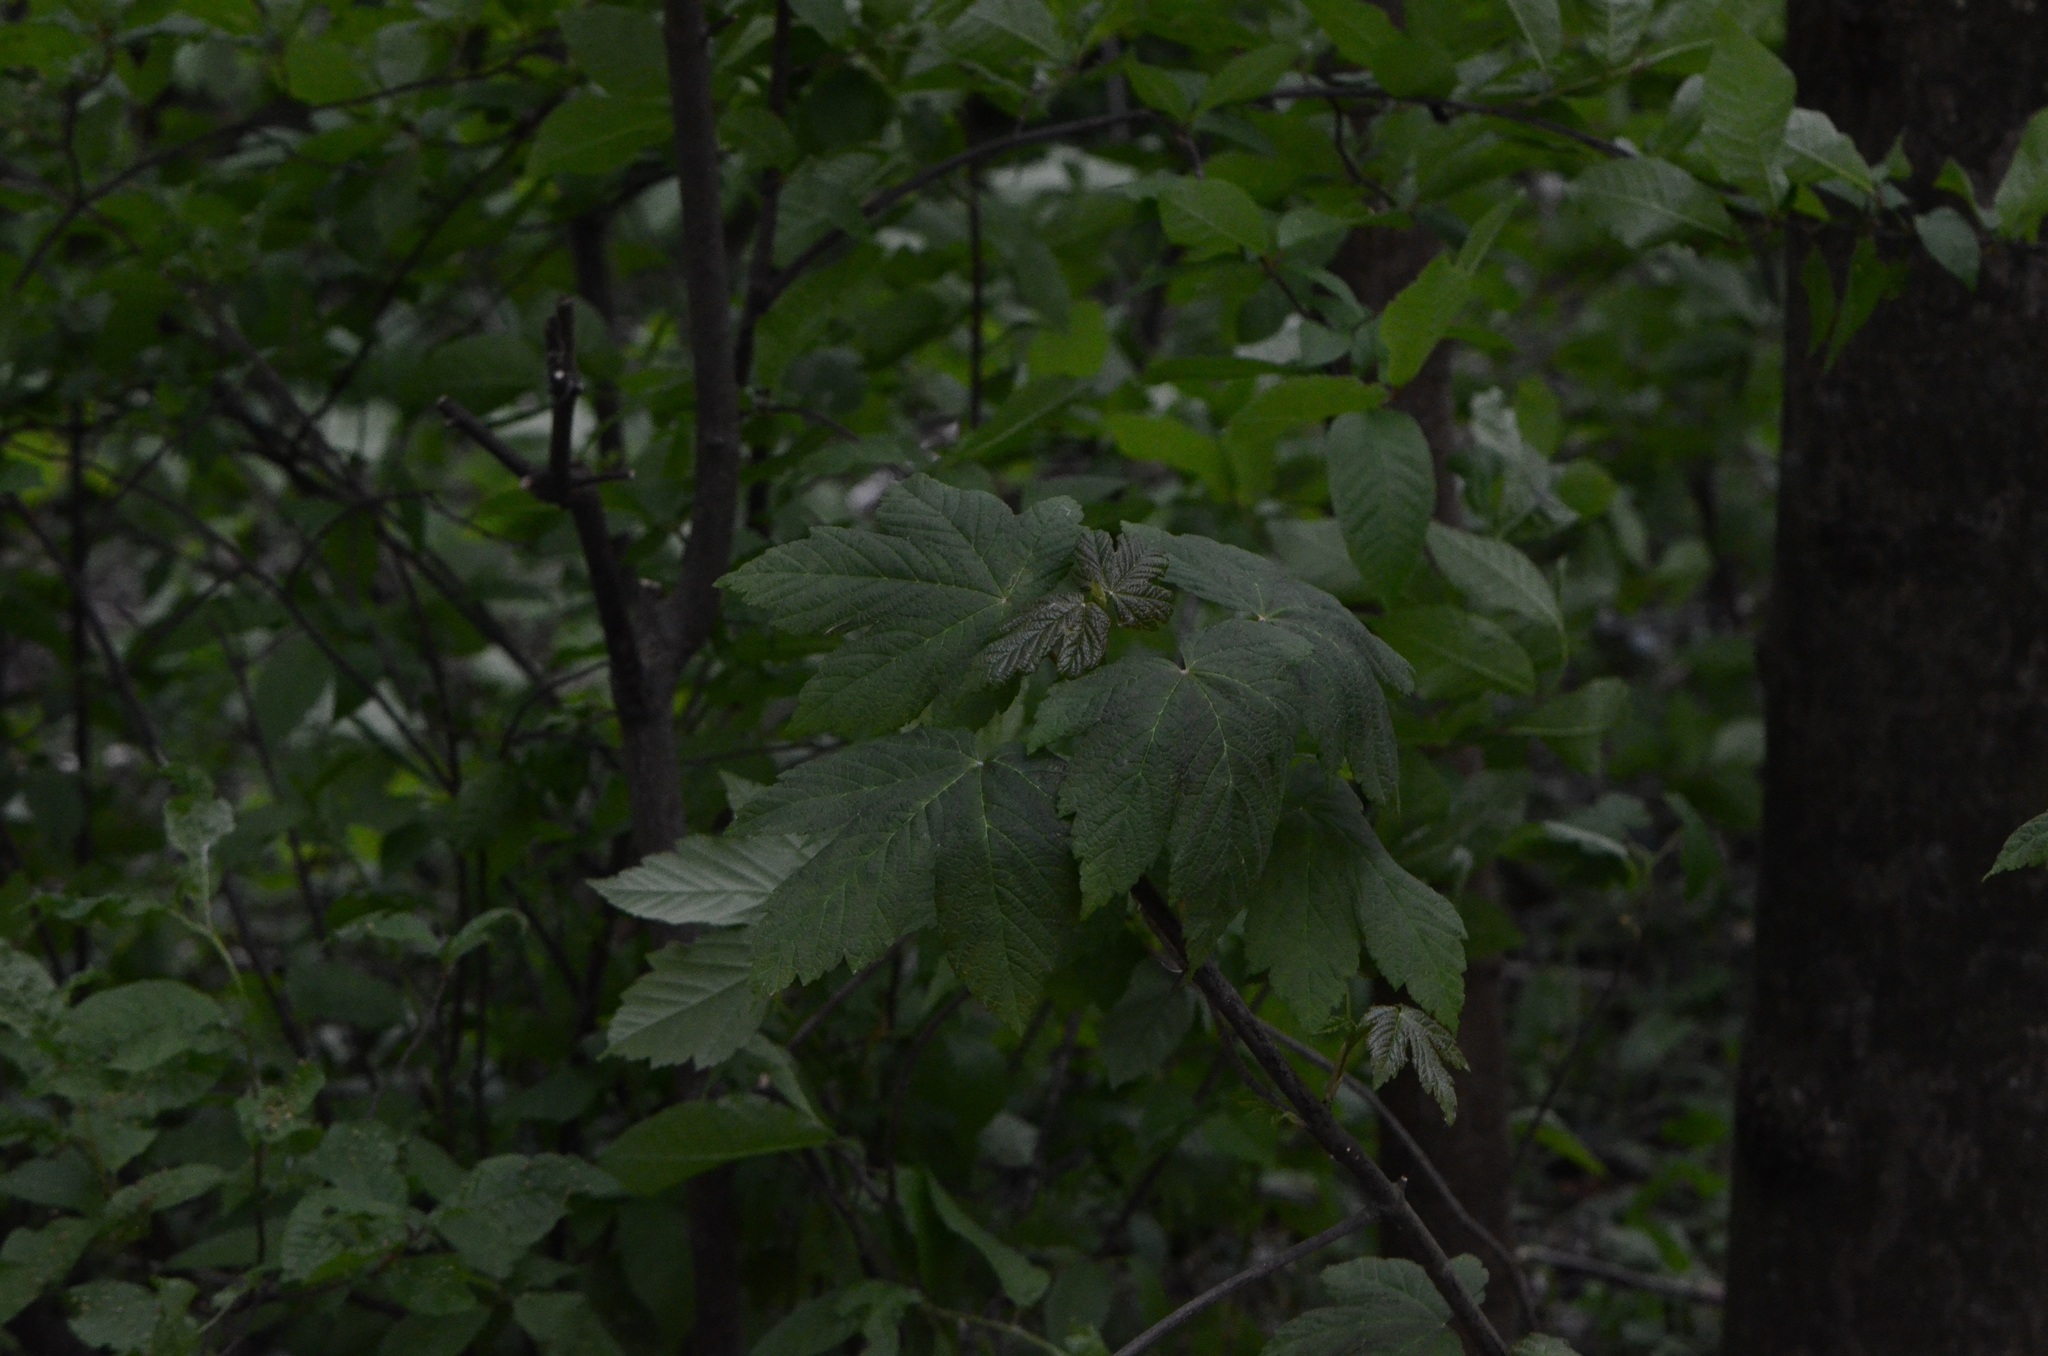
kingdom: Plantae
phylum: Tracheophyta
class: Magnoliopsida
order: Sapindales
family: Sapindaceae
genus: Acer
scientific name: Acer pseudoplatanus
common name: Sycamore
